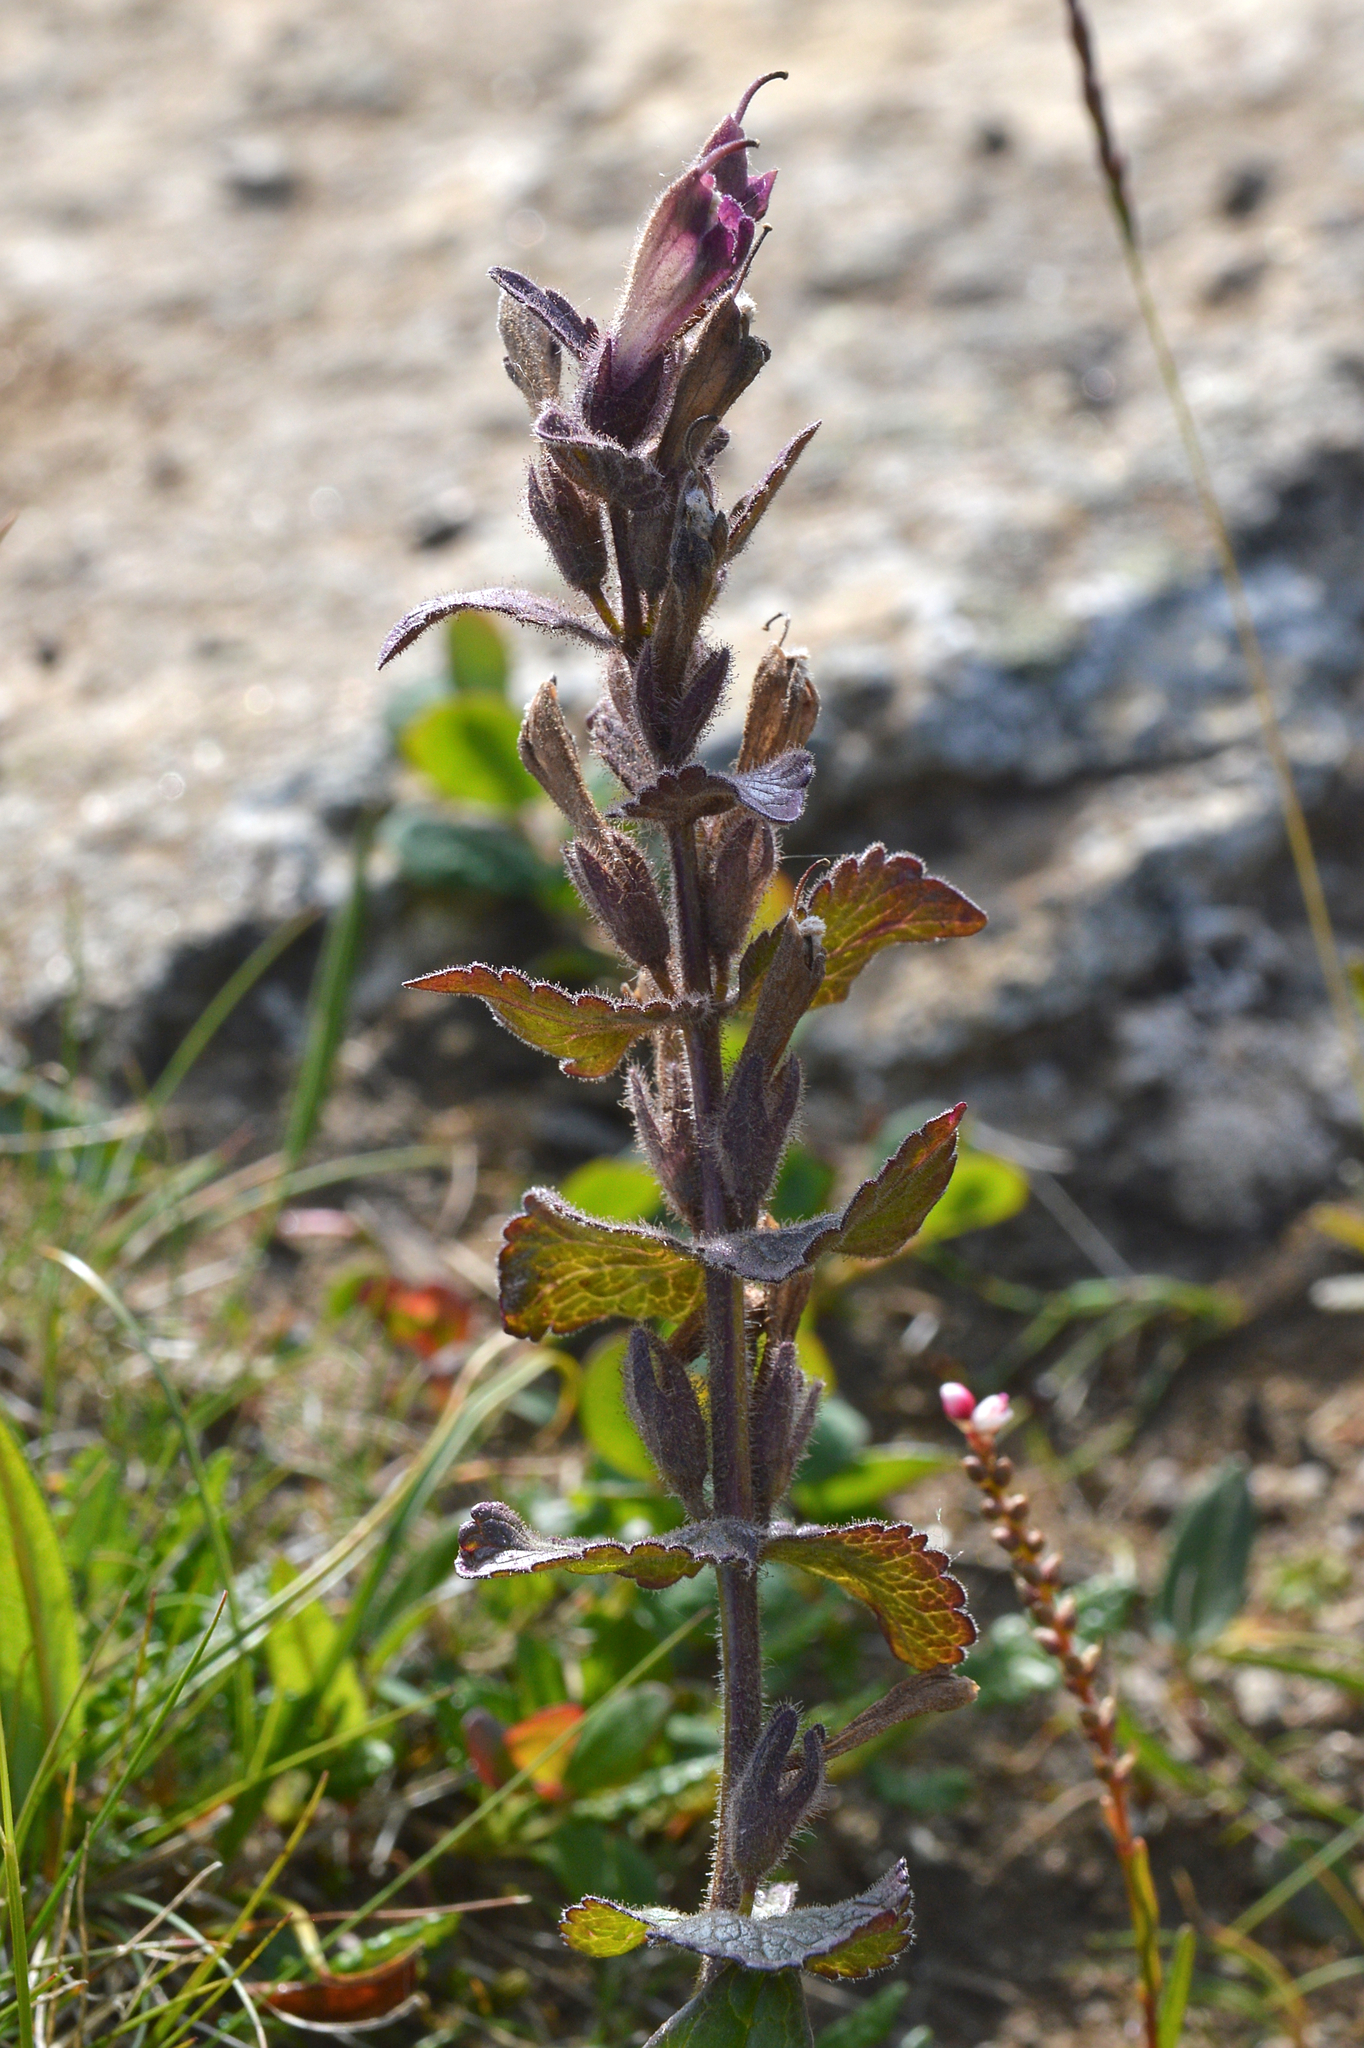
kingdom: Plantae
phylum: Tracheophyta
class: Magnoliopsida
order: Lamiales
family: Orobanchaceae
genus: Bartsia
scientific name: Bartsia alpina
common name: Alpine bartsia
